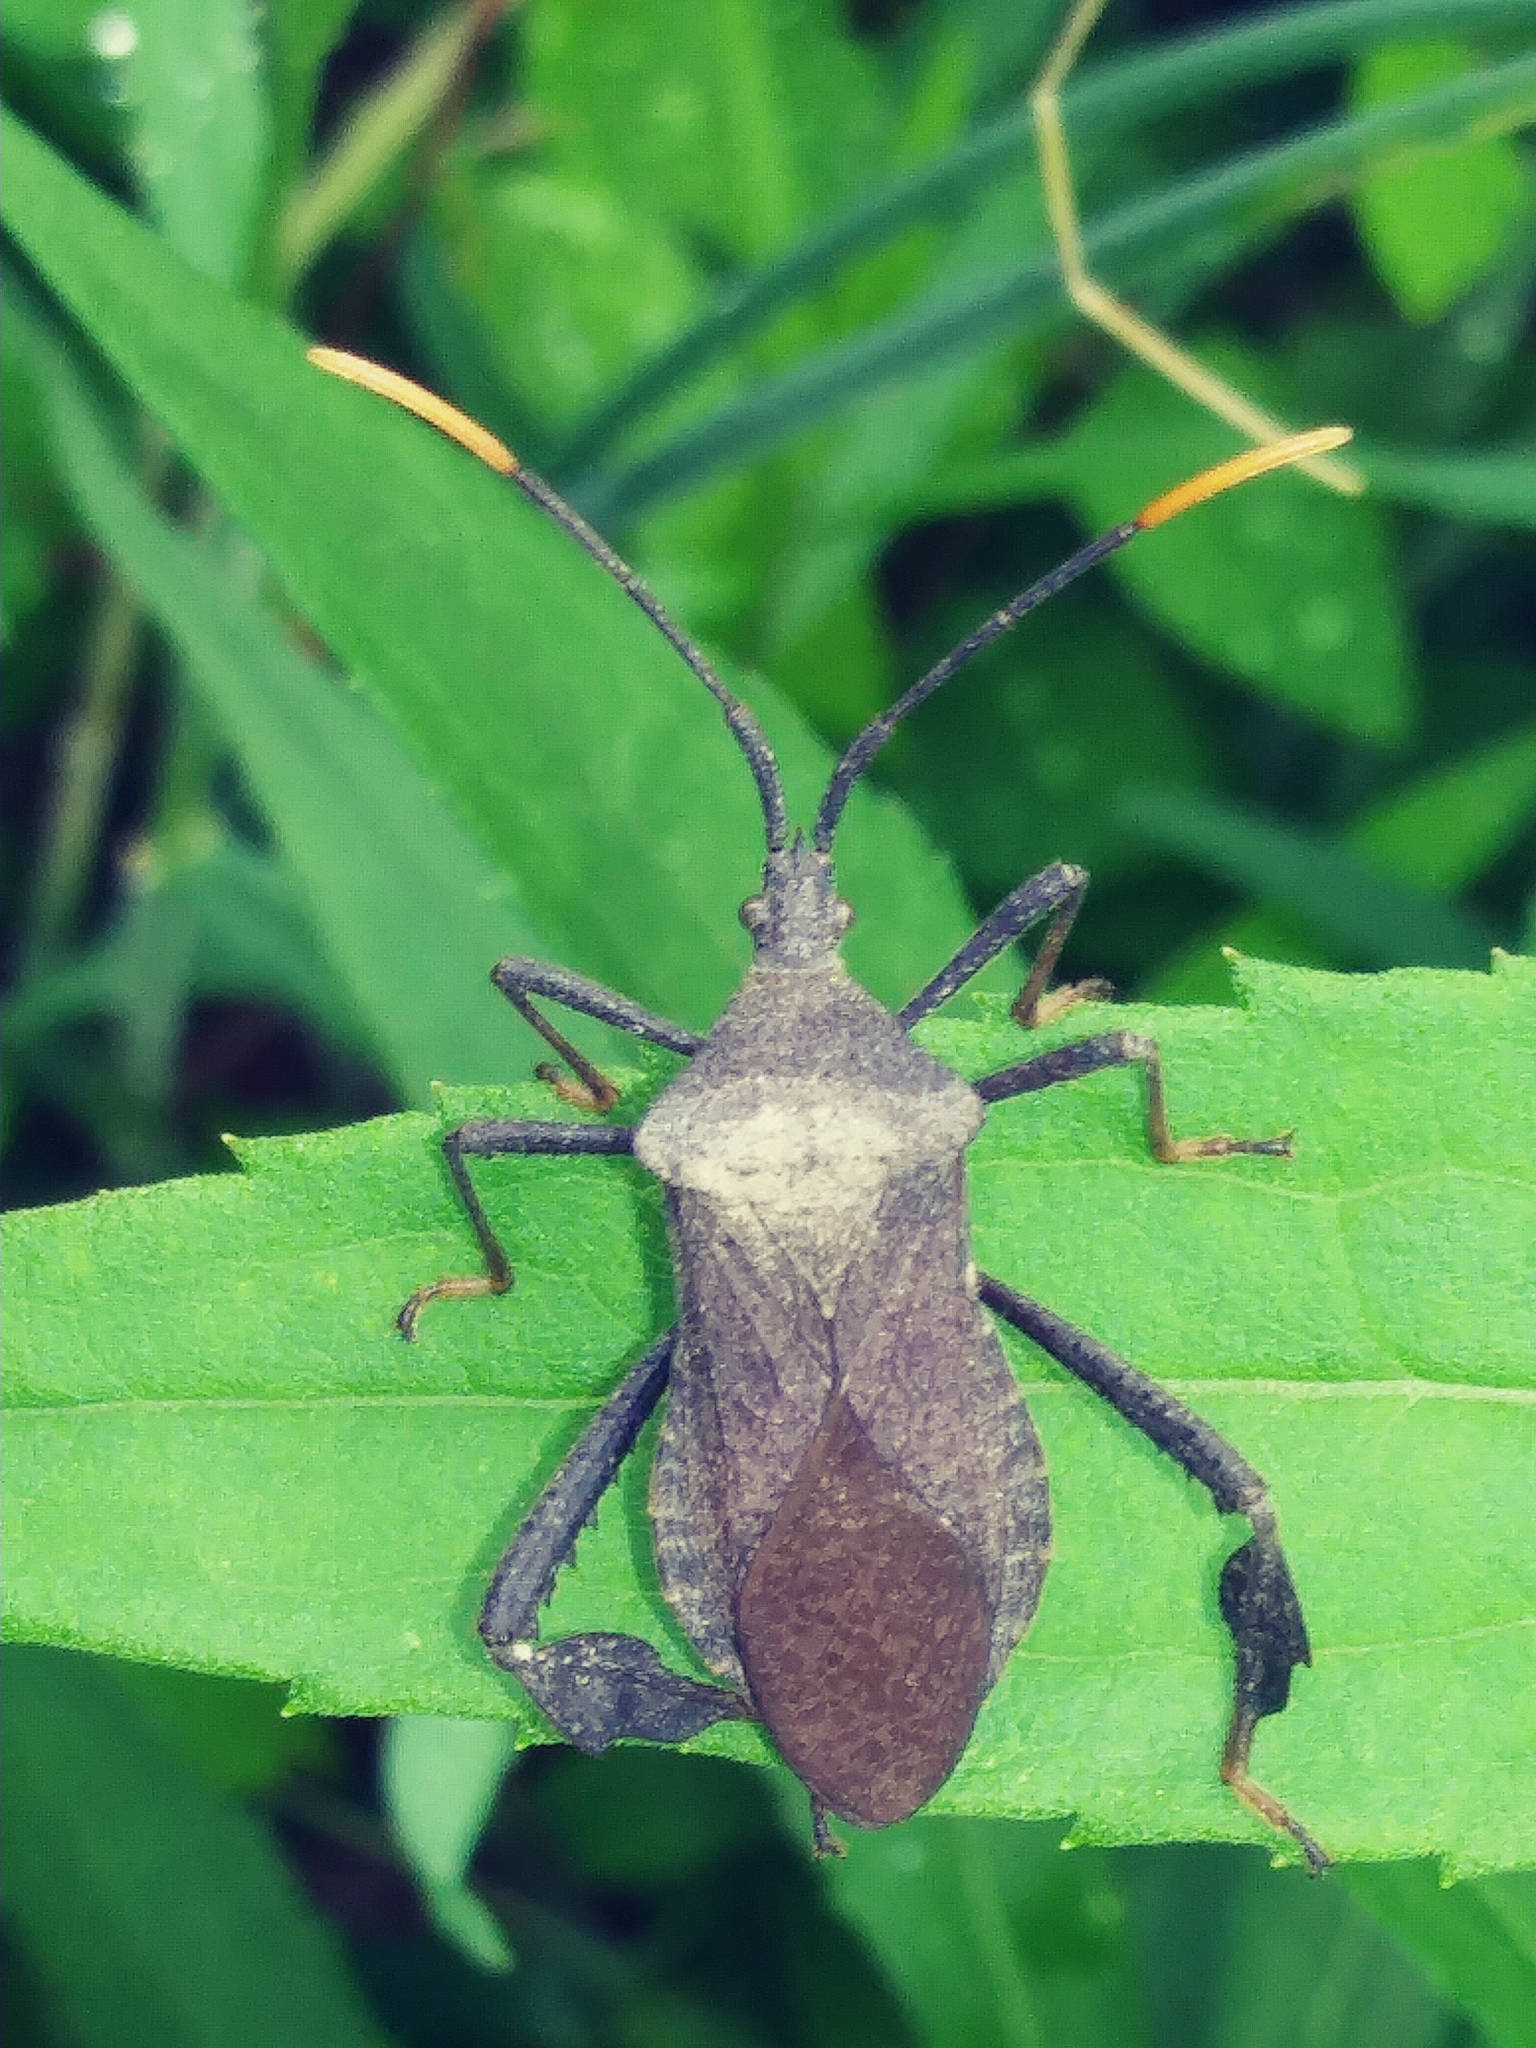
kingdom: Animalia
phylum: Arthropoda
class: Insecta
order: Hemiptera
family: Coreidae
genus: Acanthocephala
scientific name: Acanthocephala terminalis
